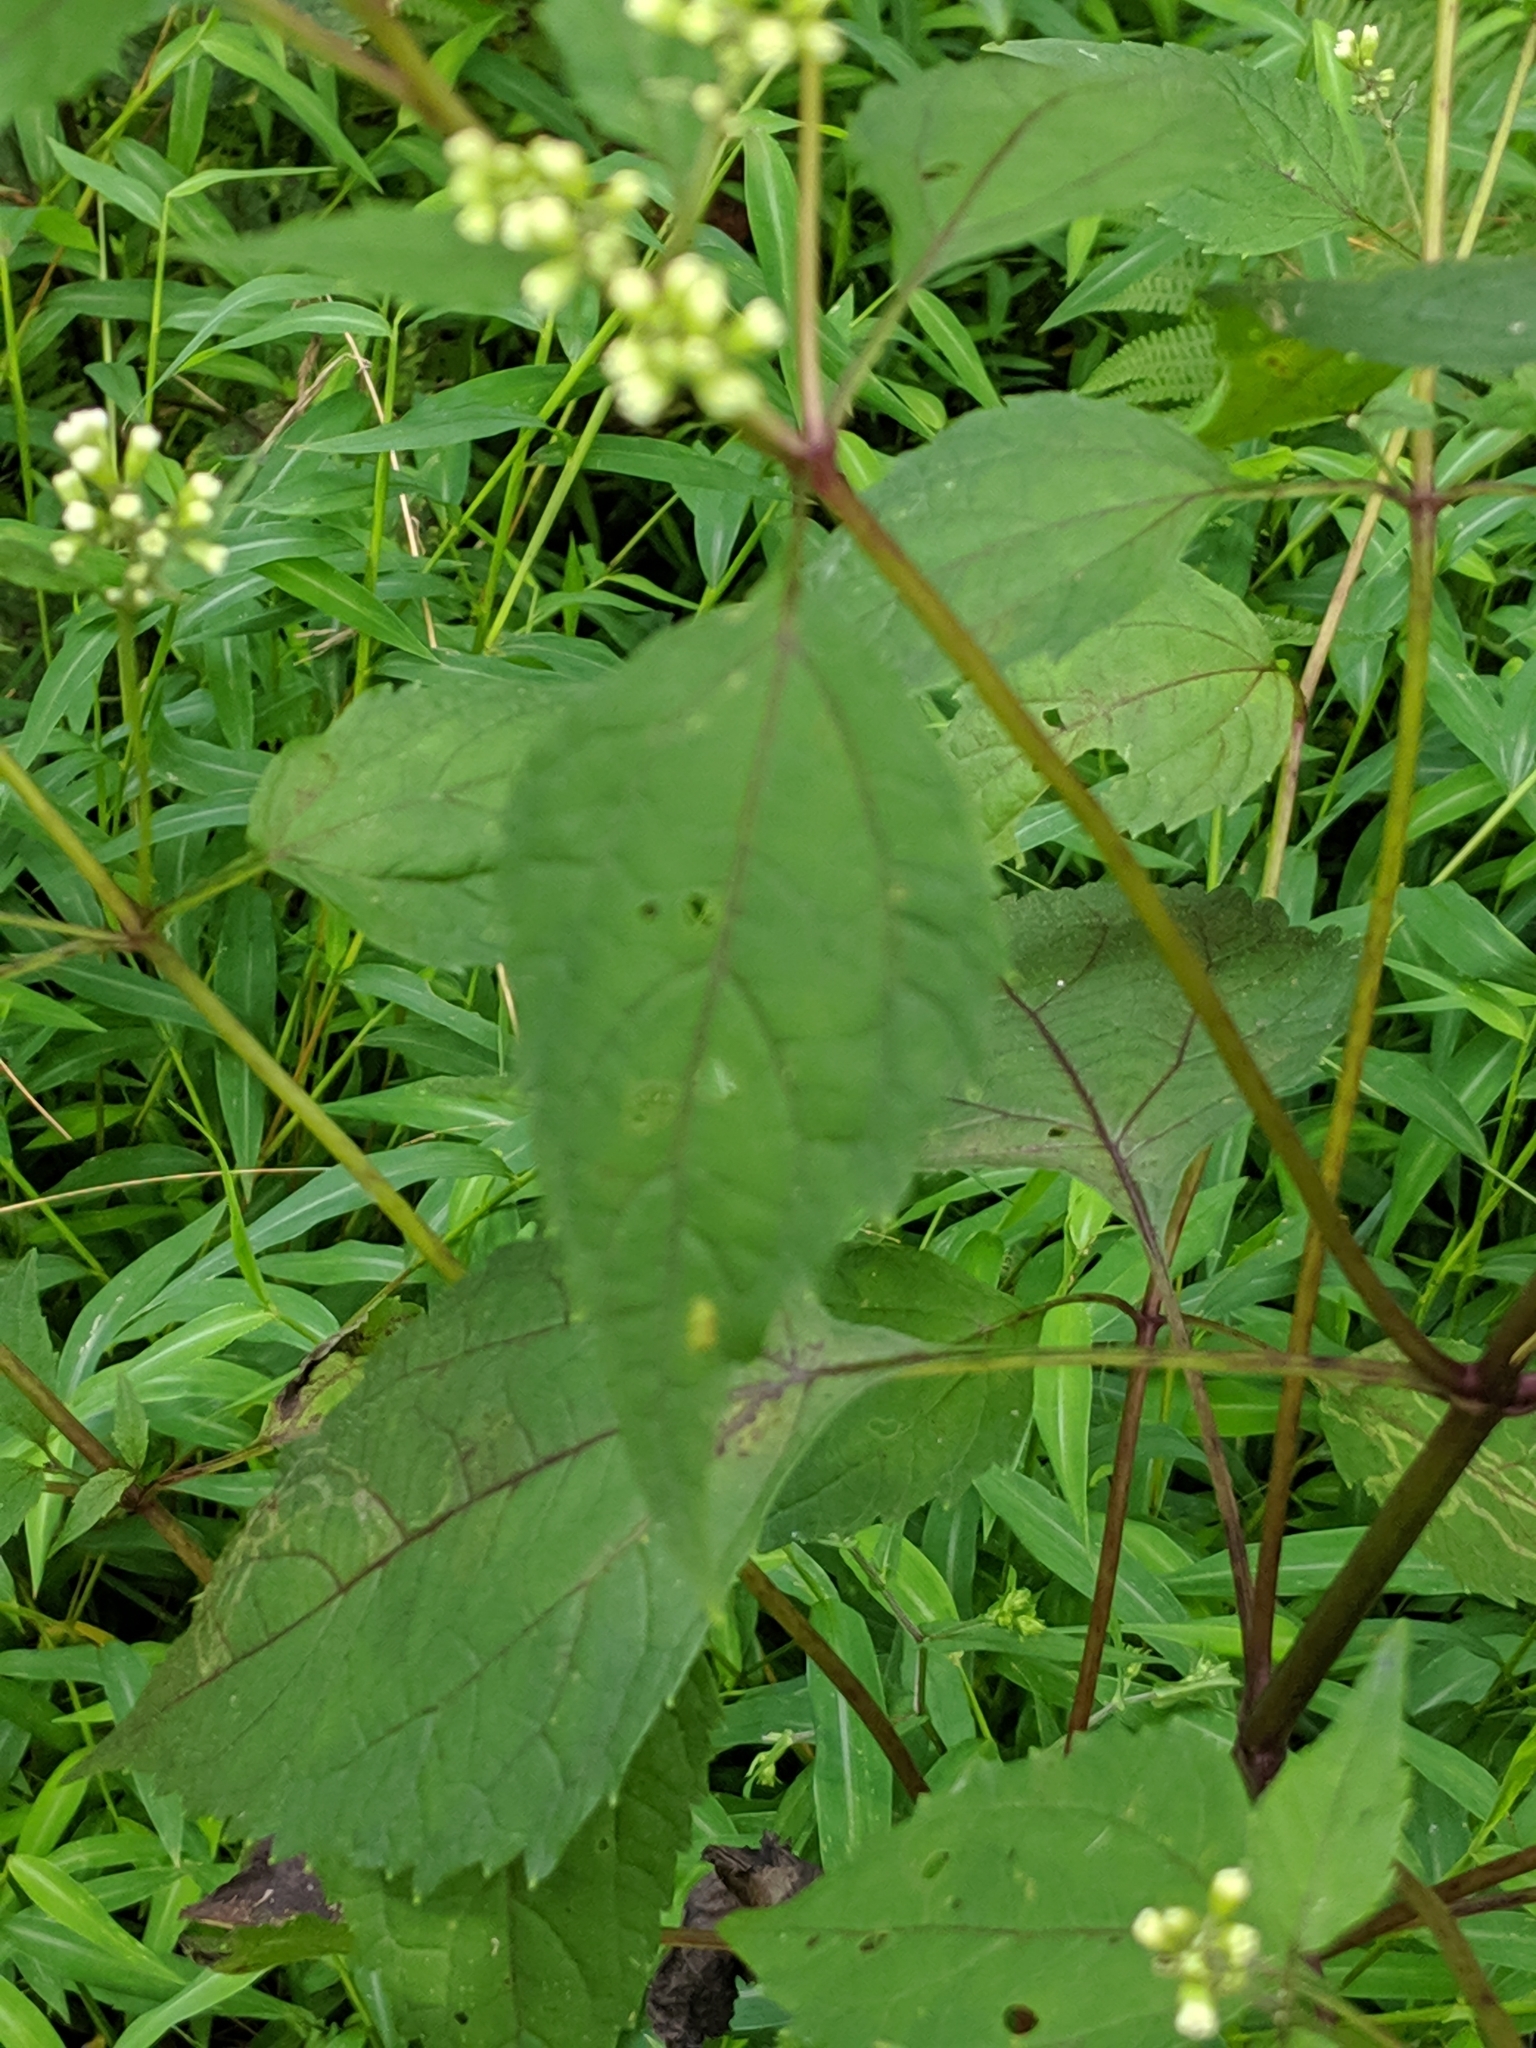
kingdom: Plantae
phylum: Tracheophyta
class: Magnoliopsida
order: Asterales
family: Asteraceae
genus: Ageratina
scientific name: Ageratina altissima
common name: White snakeroot
